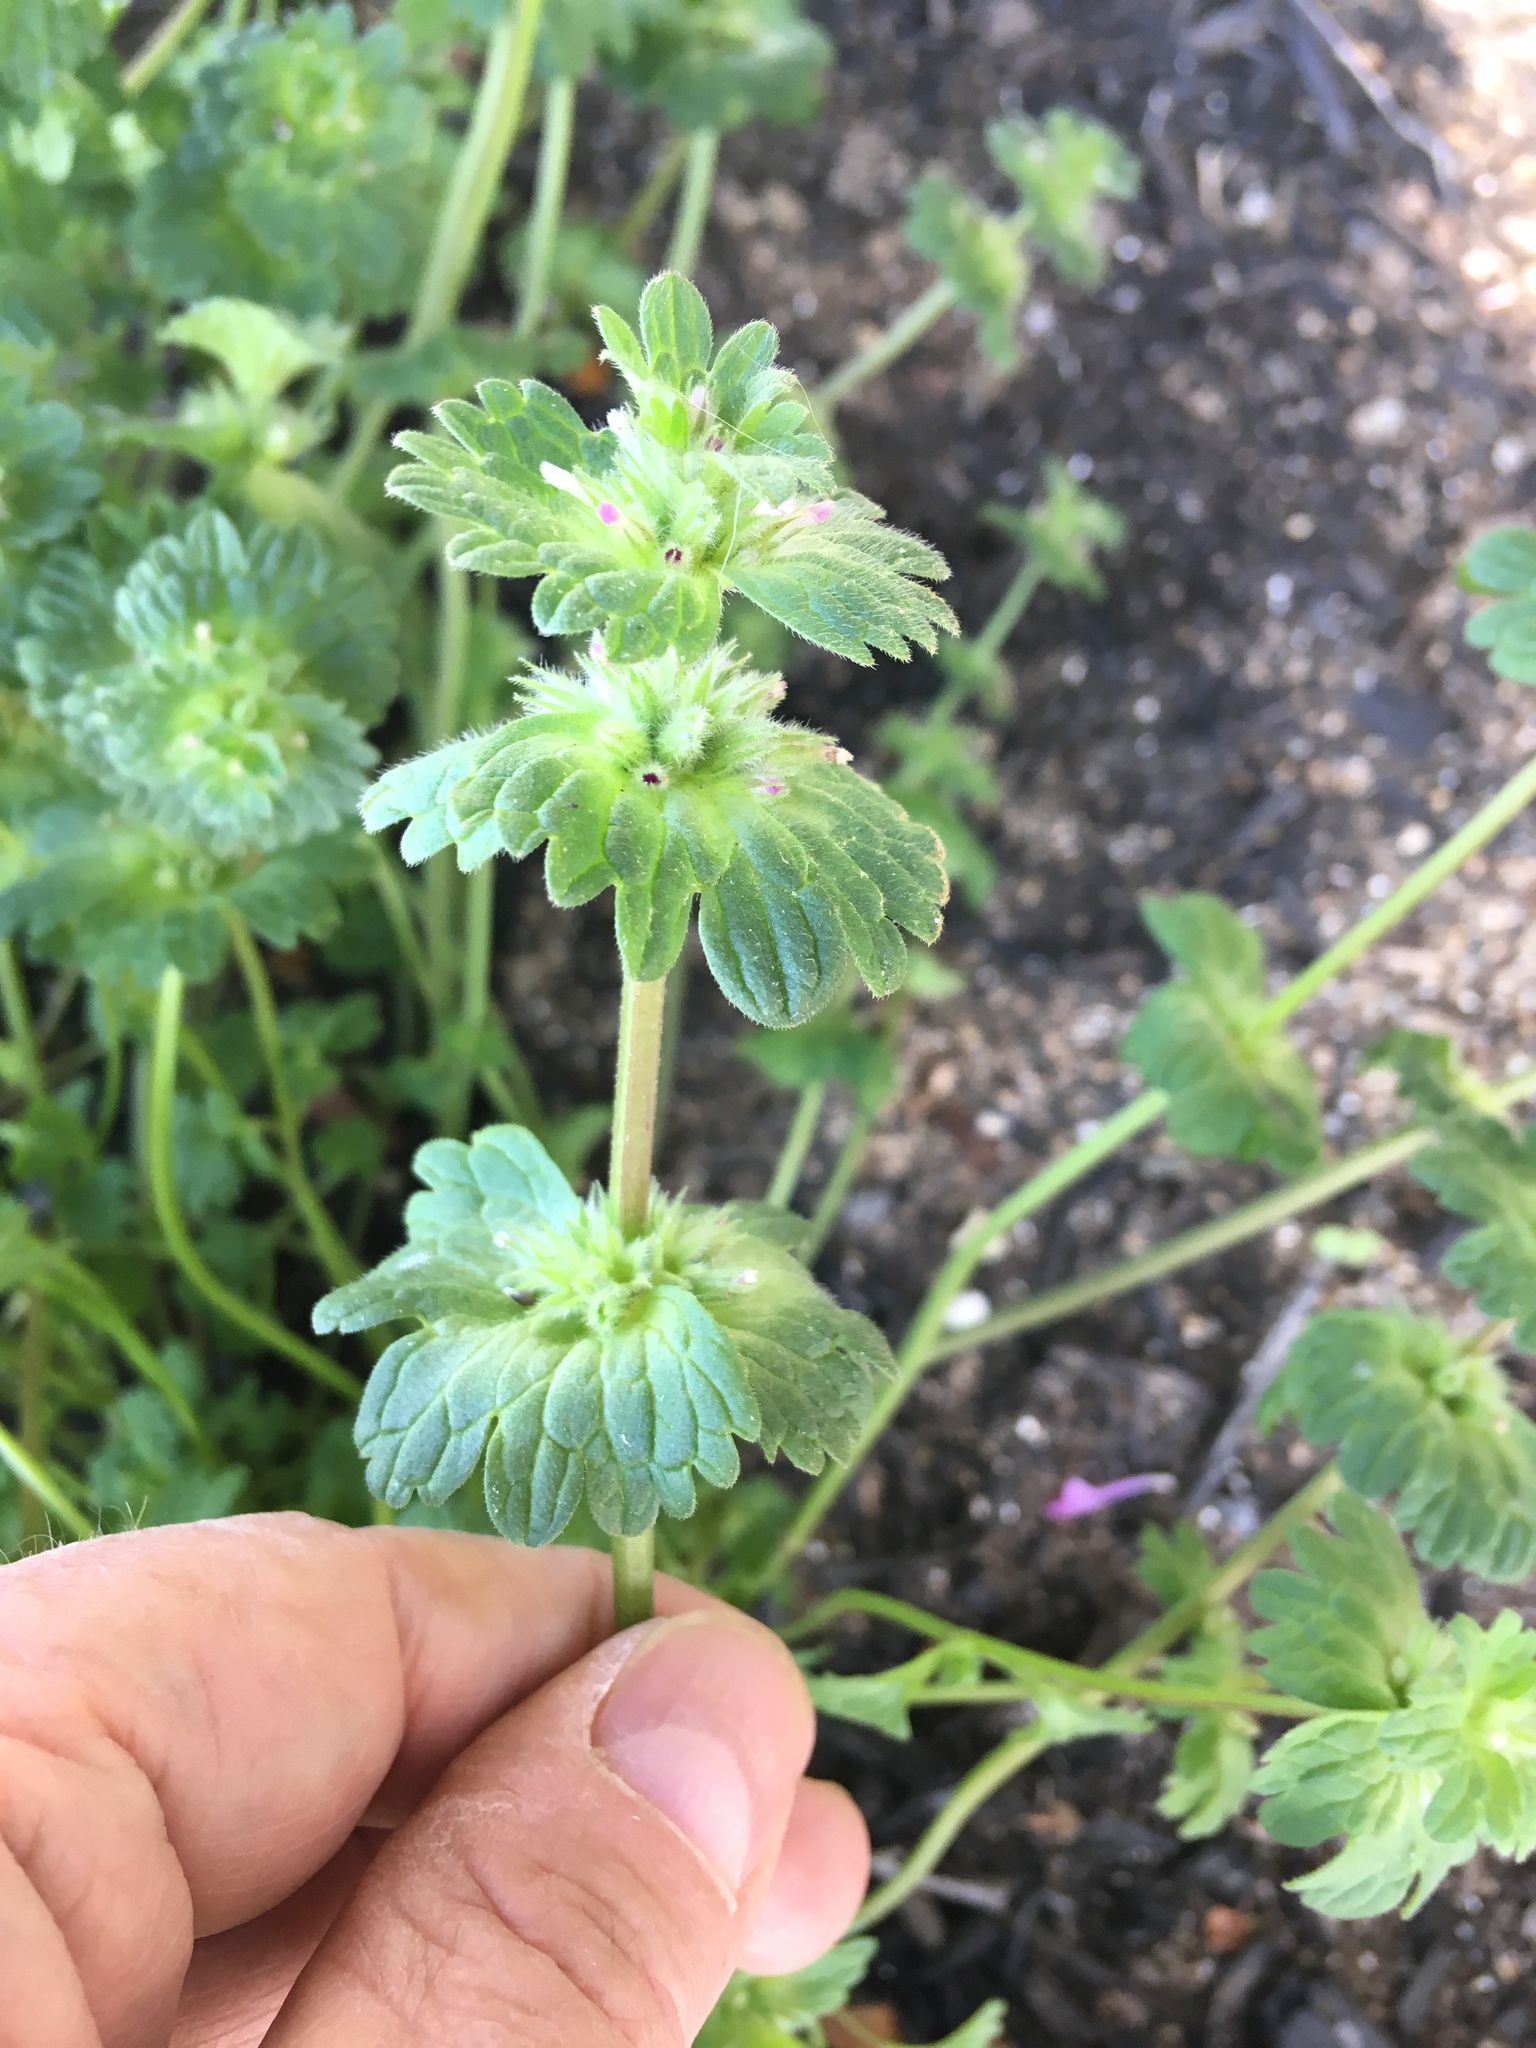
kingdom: Plantae
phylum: Tracheophyta
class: Magnoliopsida
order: Lamiales
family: Lamiaceae
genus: Lamium
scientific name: Lamium amplexicaule
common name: Henbit dead-nettle
